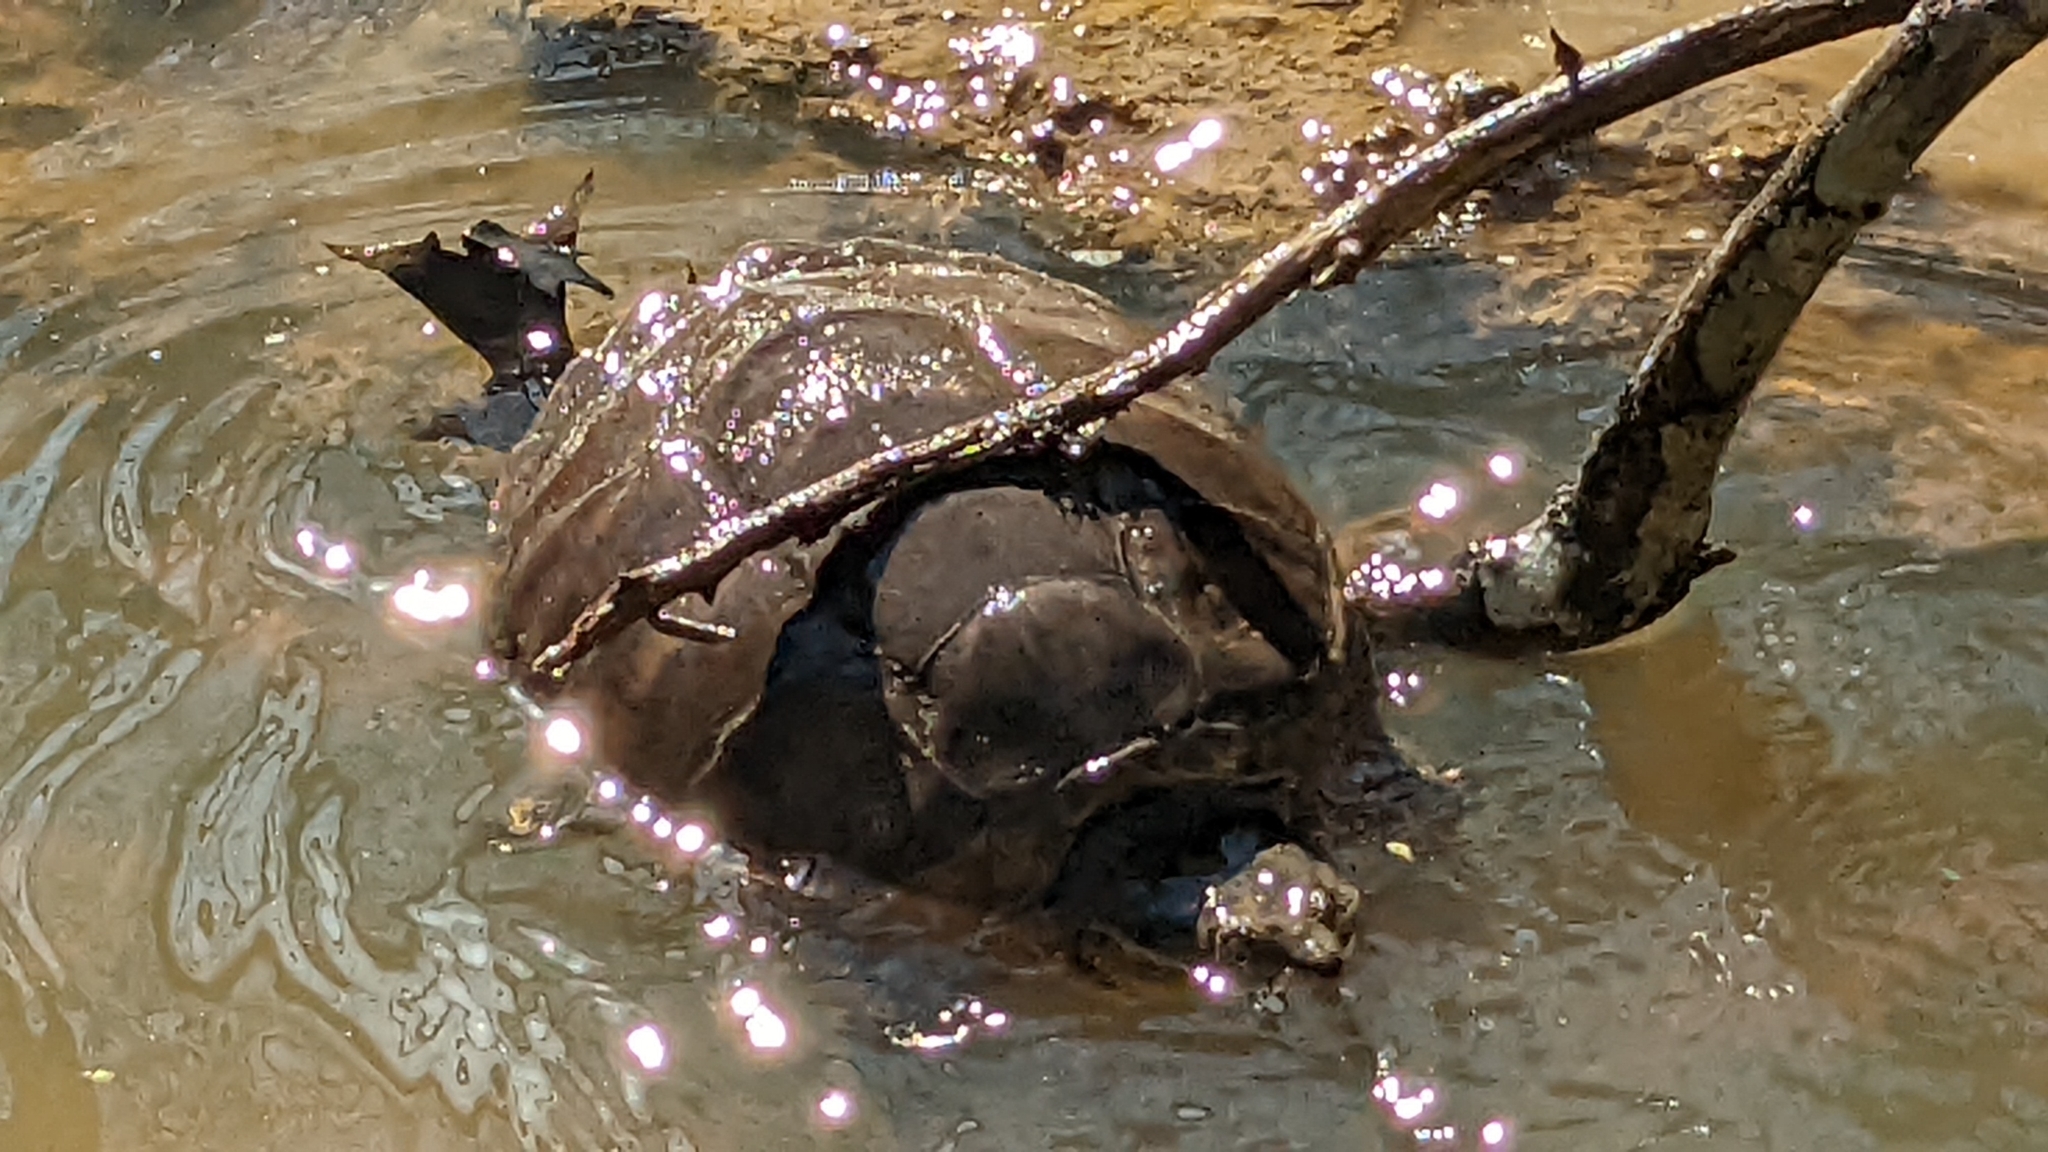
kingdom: Animalia
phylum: Chordata
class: Testudines
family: Chelydridae
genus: Chelydra
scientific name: Chelydra serpentina
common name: Common snapping turtle
